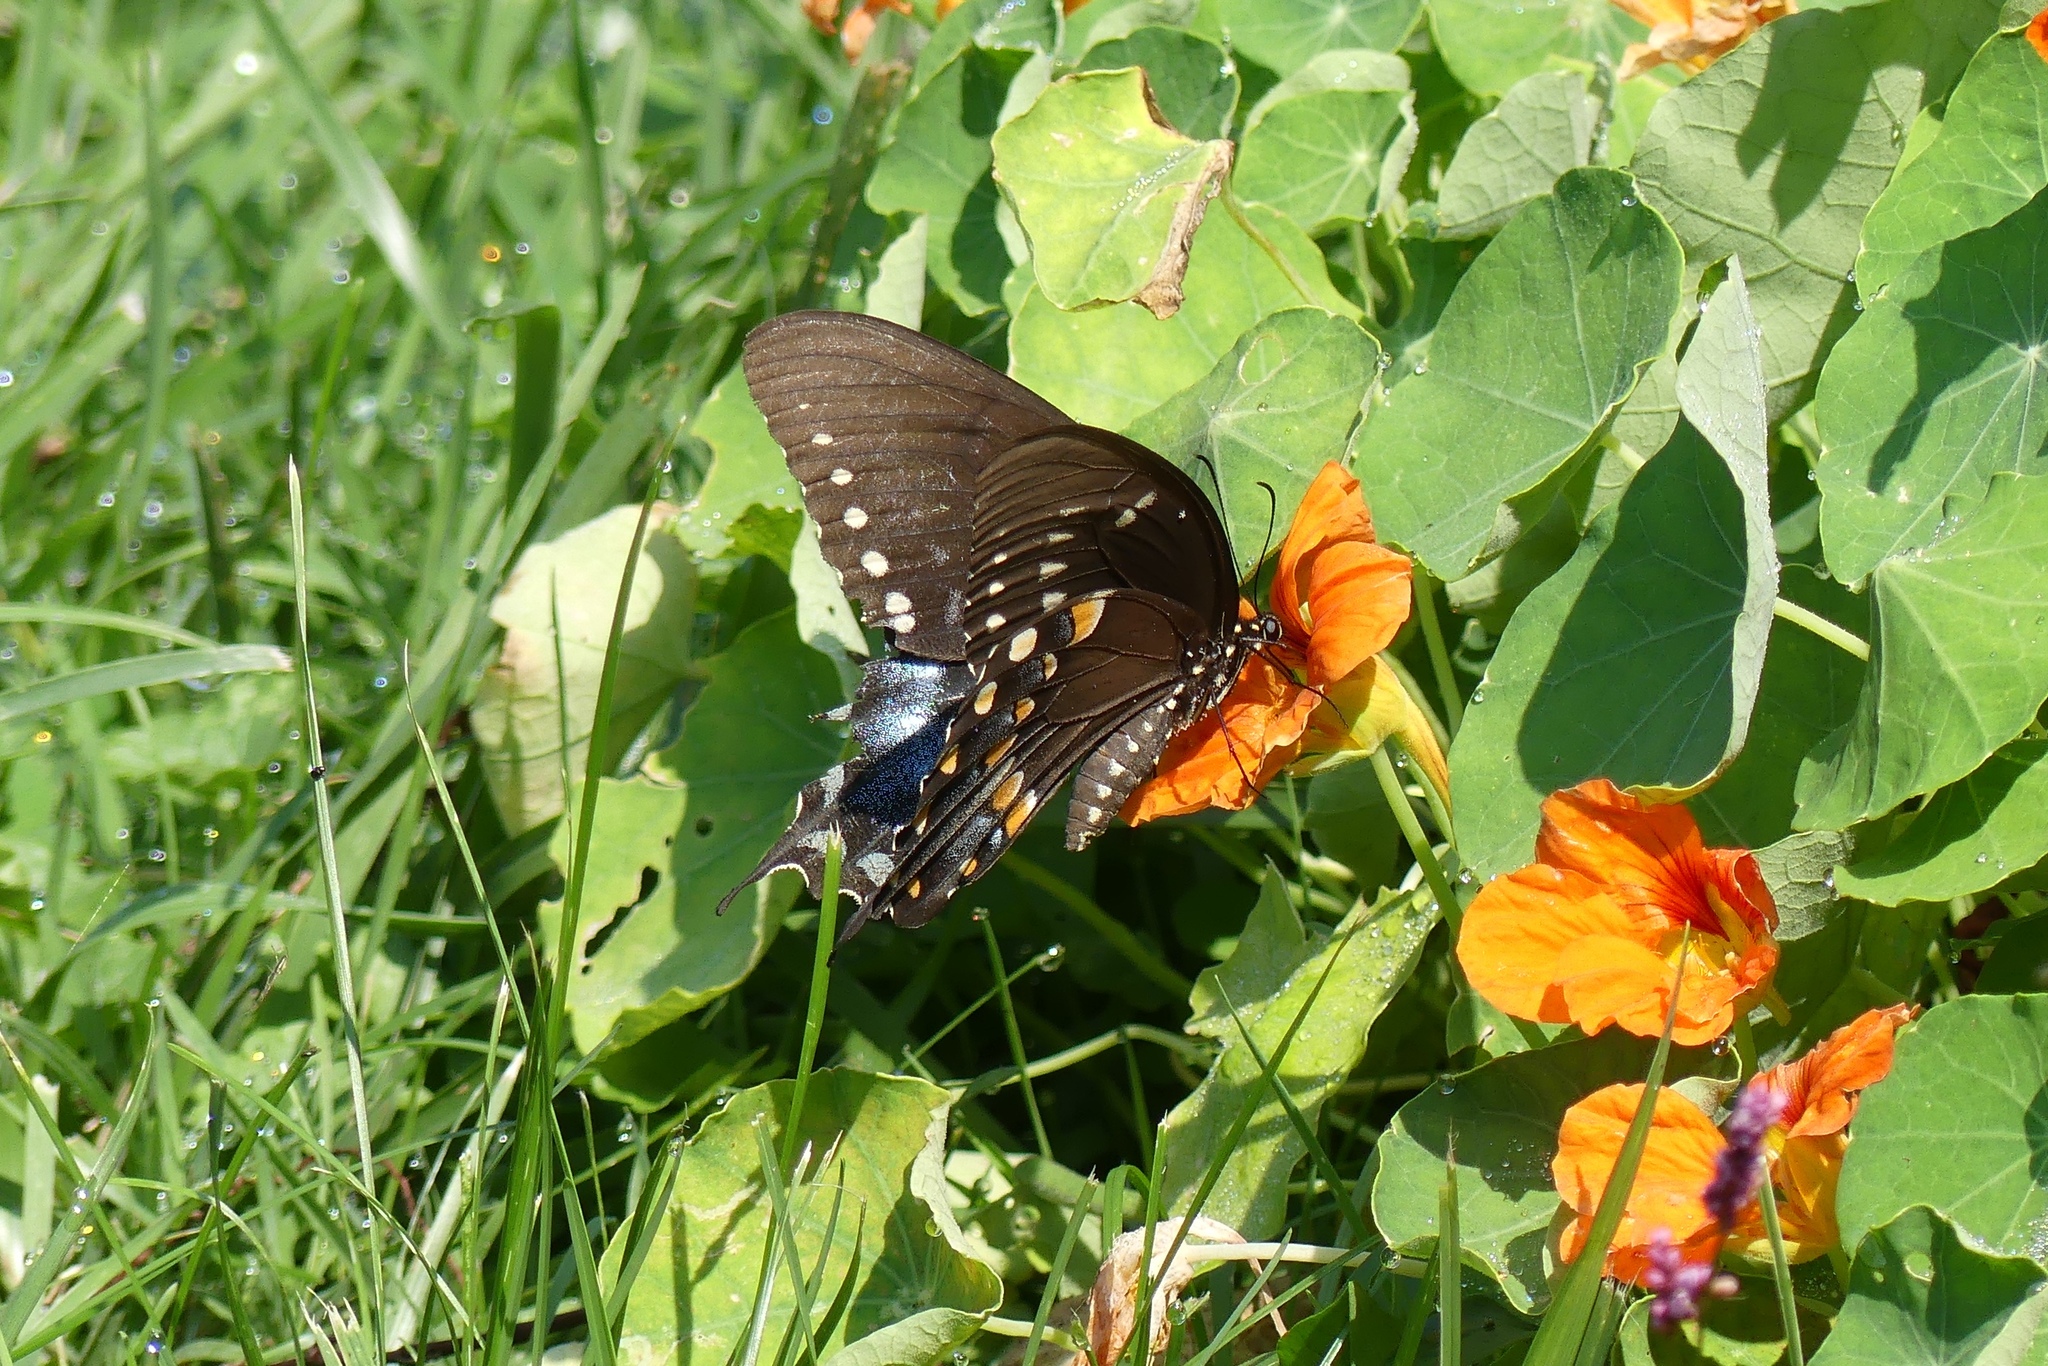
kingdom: Animalia
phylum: Arthropoda
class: Insecta
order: Lepidoptera
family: Papilionidae
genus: Papilio
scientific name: Papilio troilus
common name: Spicebush swallowtail
